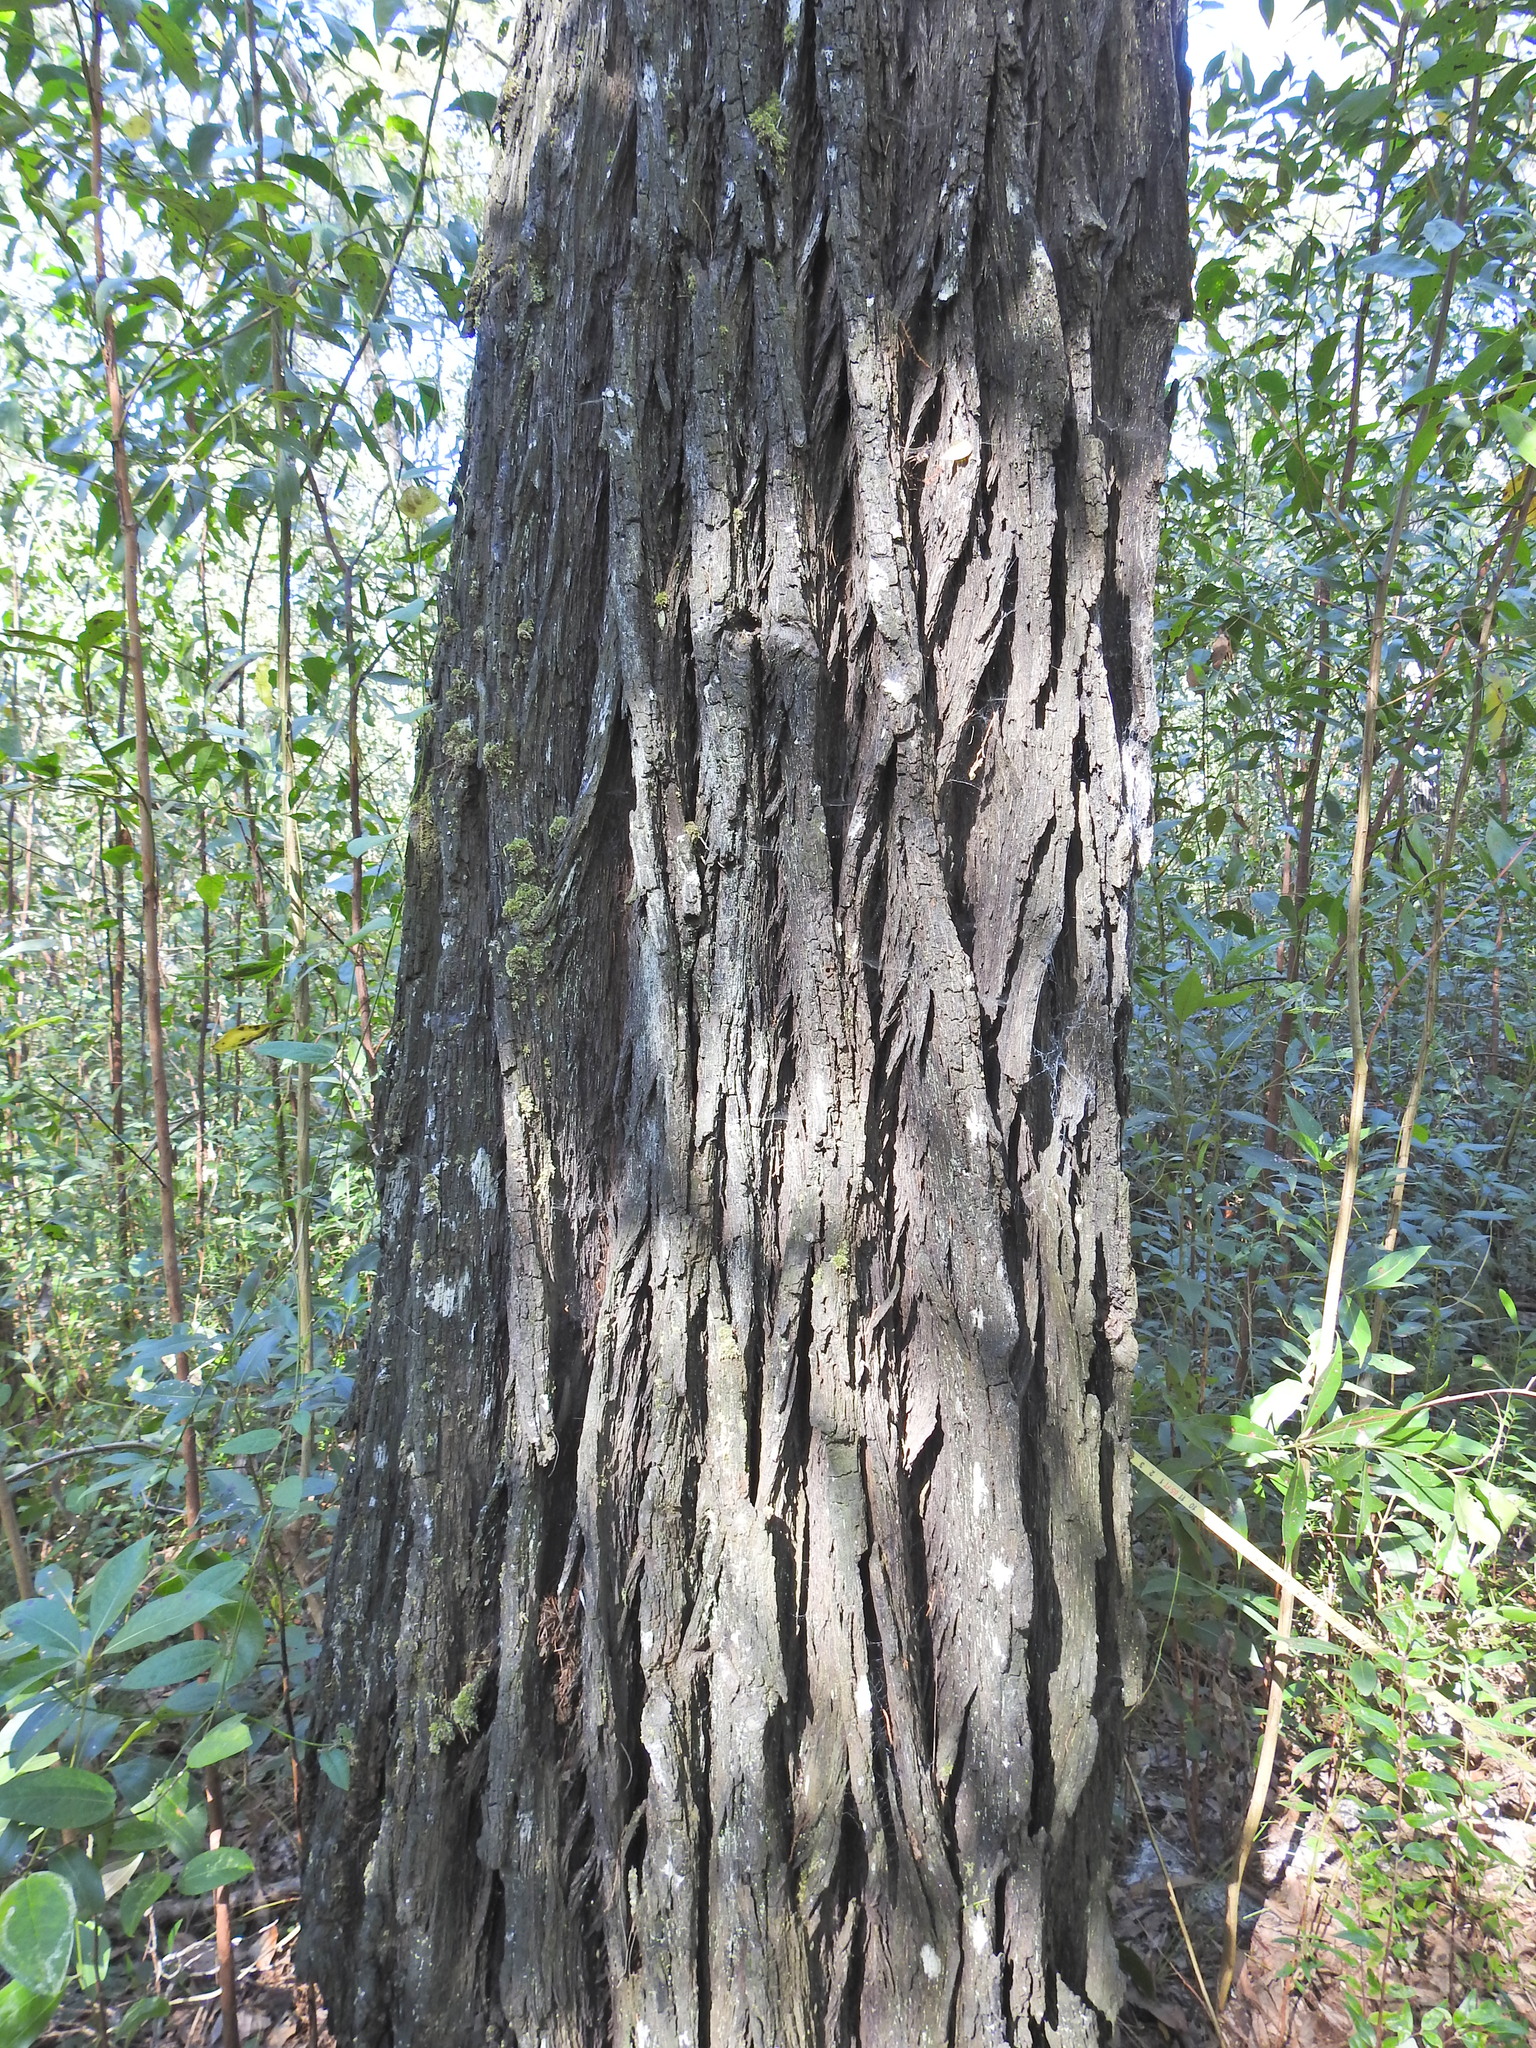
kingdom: Plantae
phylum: Tracheophyta
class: Pinopsida
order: Pinales
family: Cupressaceae
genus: Callitris
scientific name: Callitris columellaris
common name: White cypress-pine
